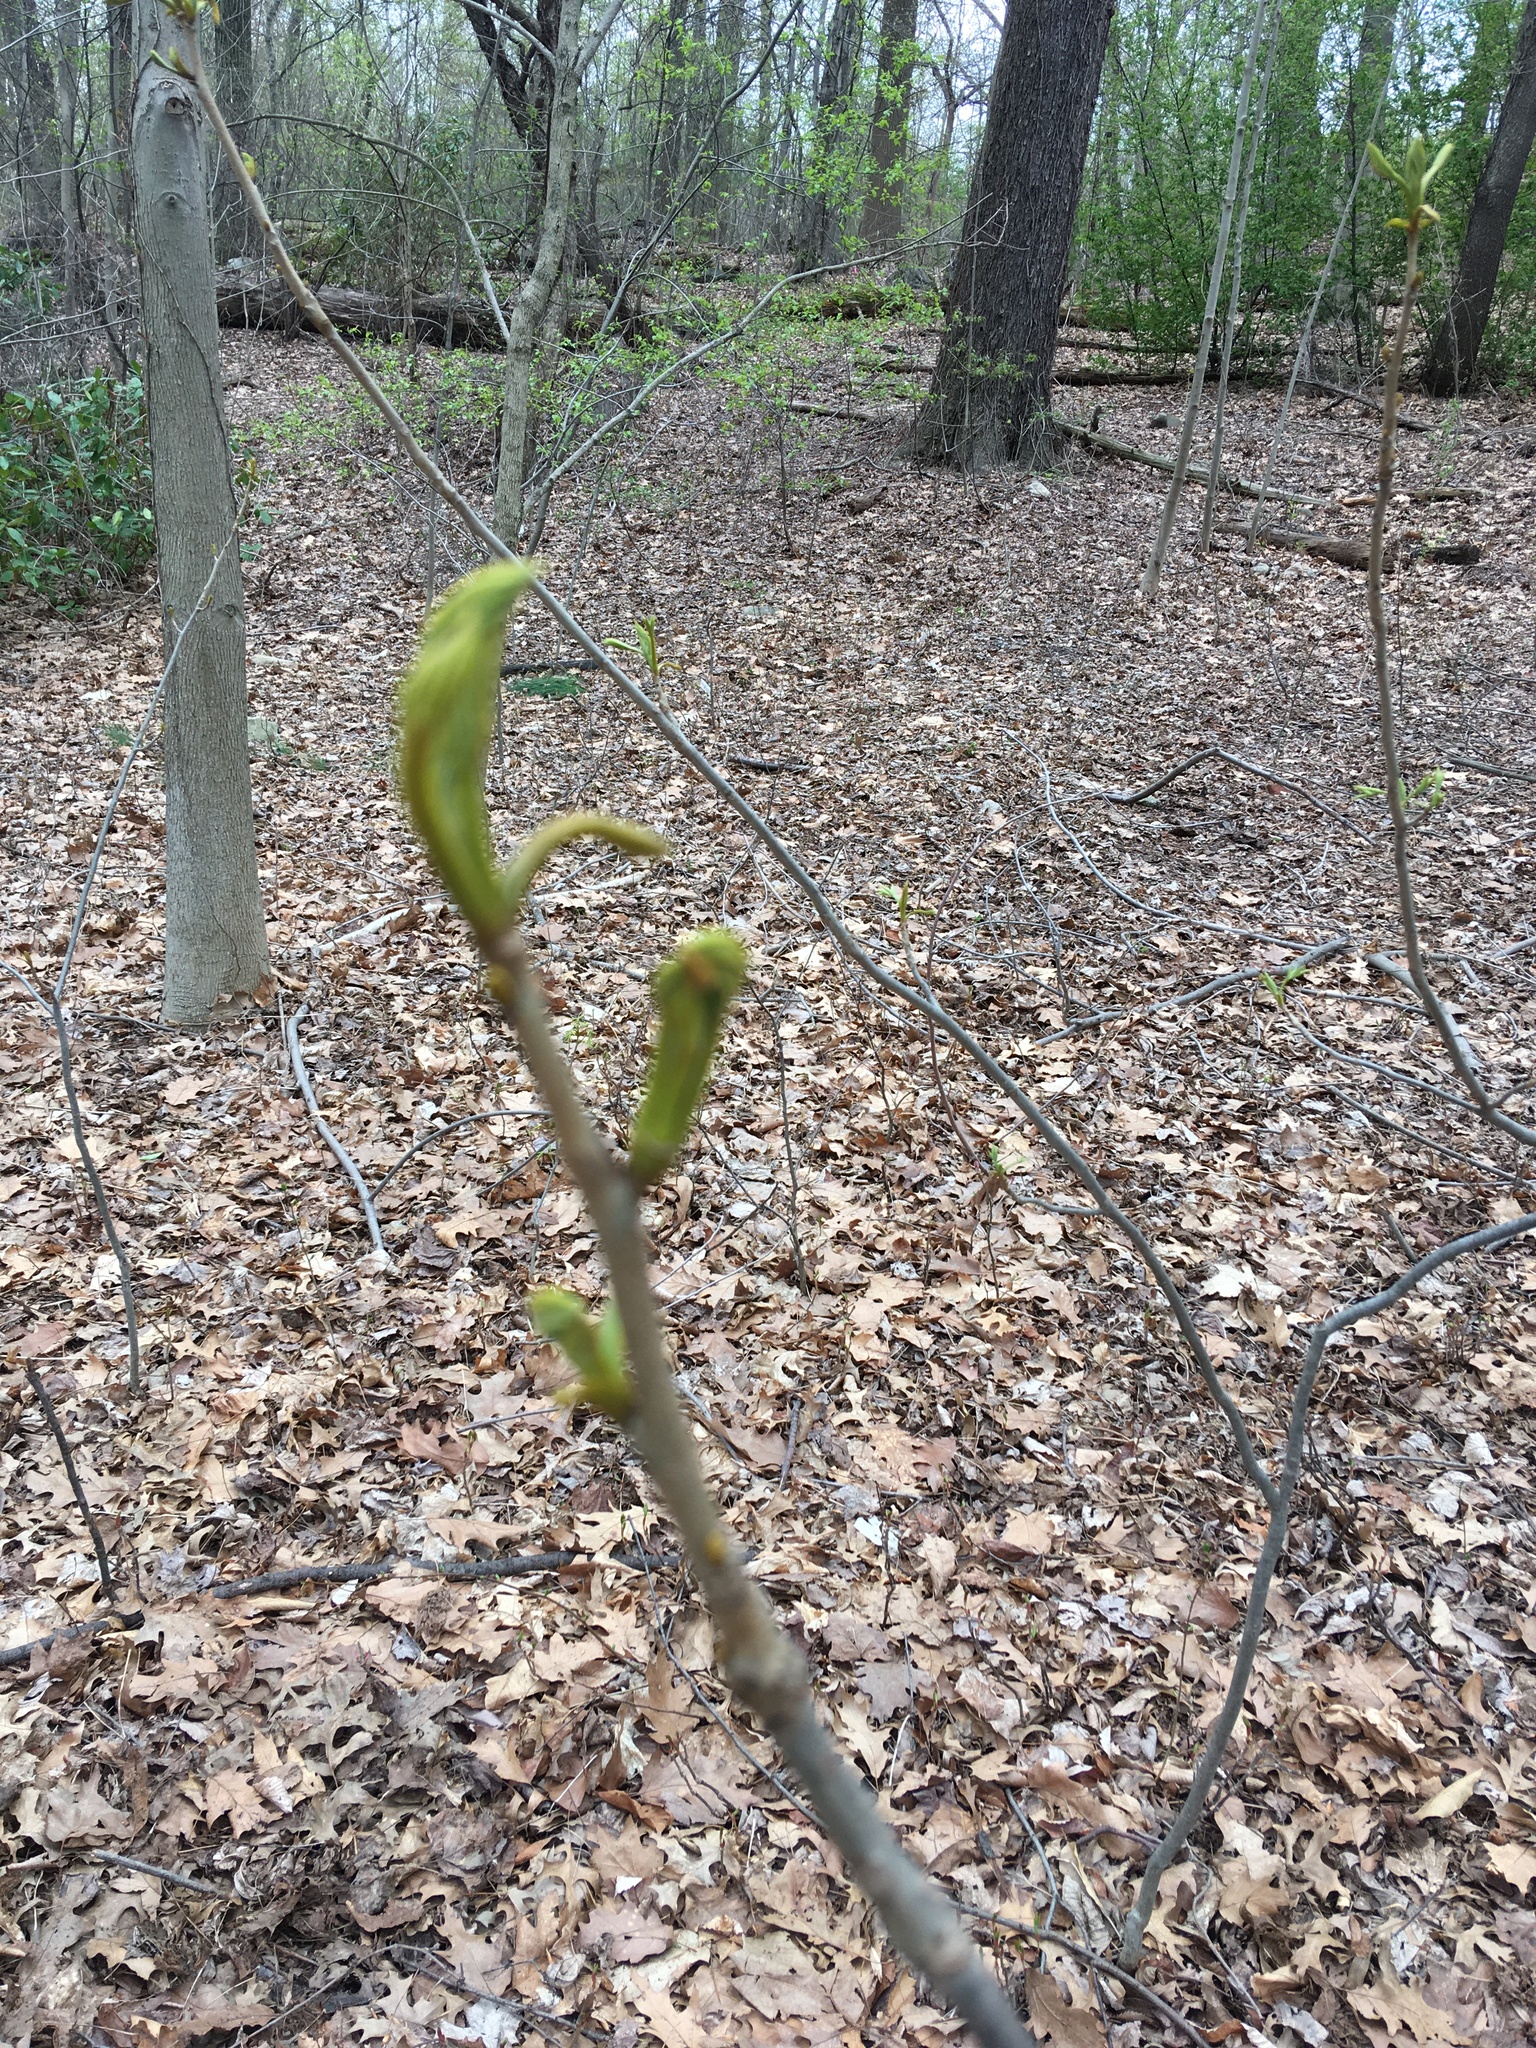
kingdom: Plantae
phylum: Tracheophyta
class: Magnoliopsida
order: Fagales
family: Juglandaceae
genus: Carya
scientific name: Carya cordiformis
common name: Bitternut hickory
